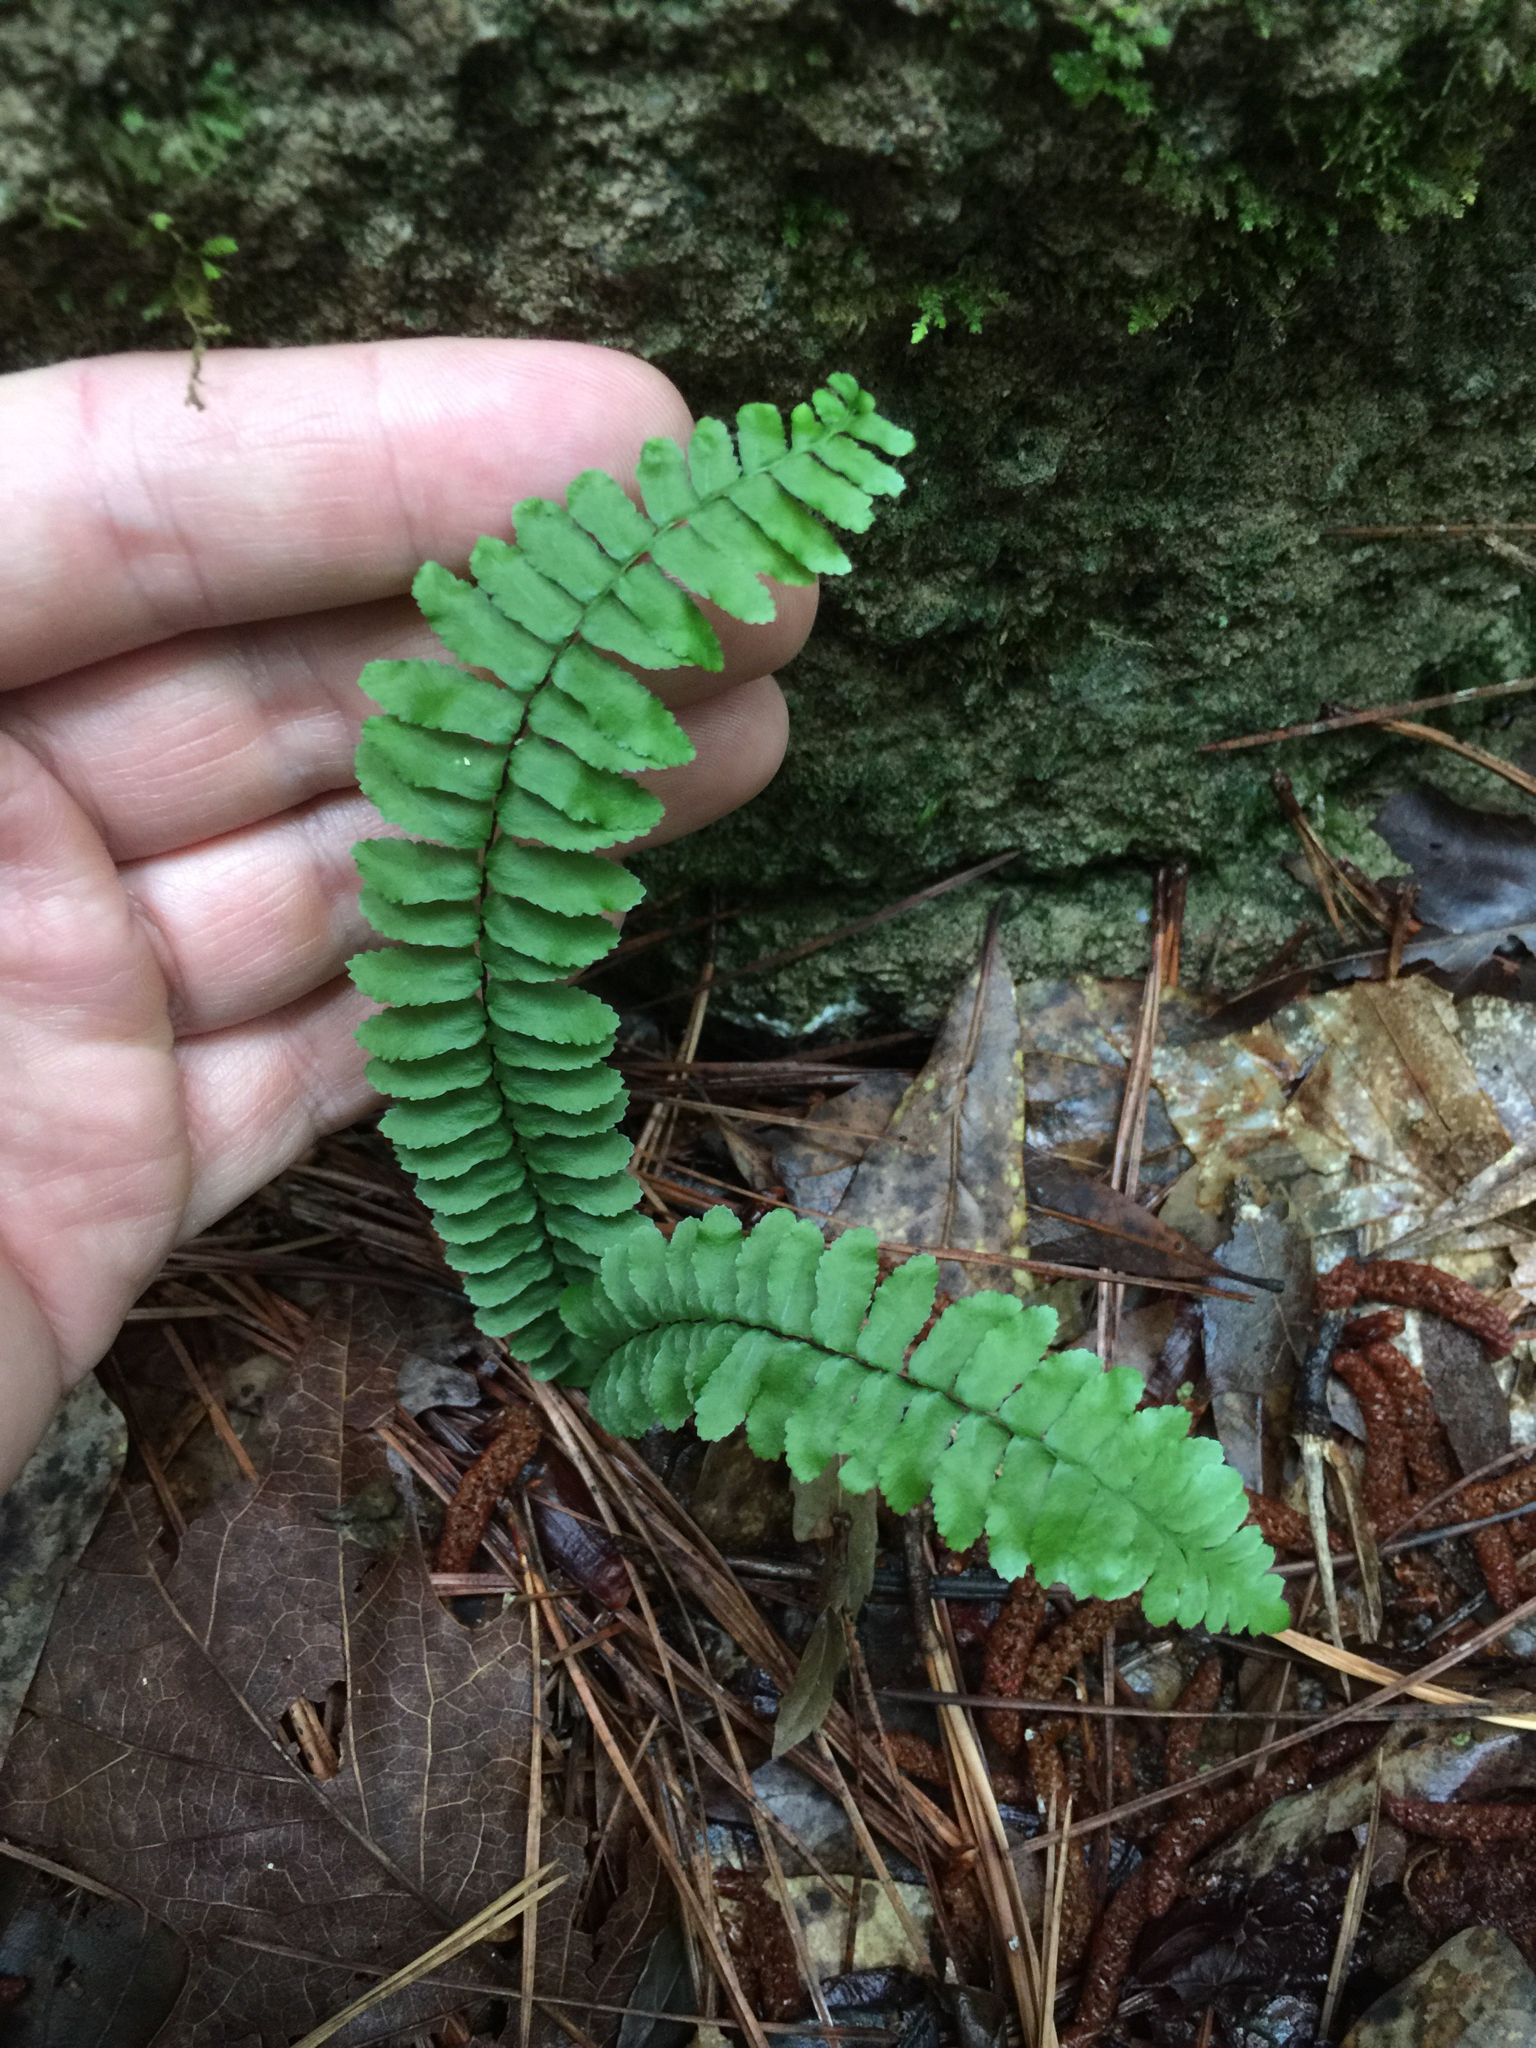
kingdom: Plantae
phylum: Tracheophyta
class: Polypodiopsida
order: Polypodiales
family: Aspleniaceae
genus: Asplenium
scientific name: Asplenium platyneuron
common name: Ebony spleenwort
